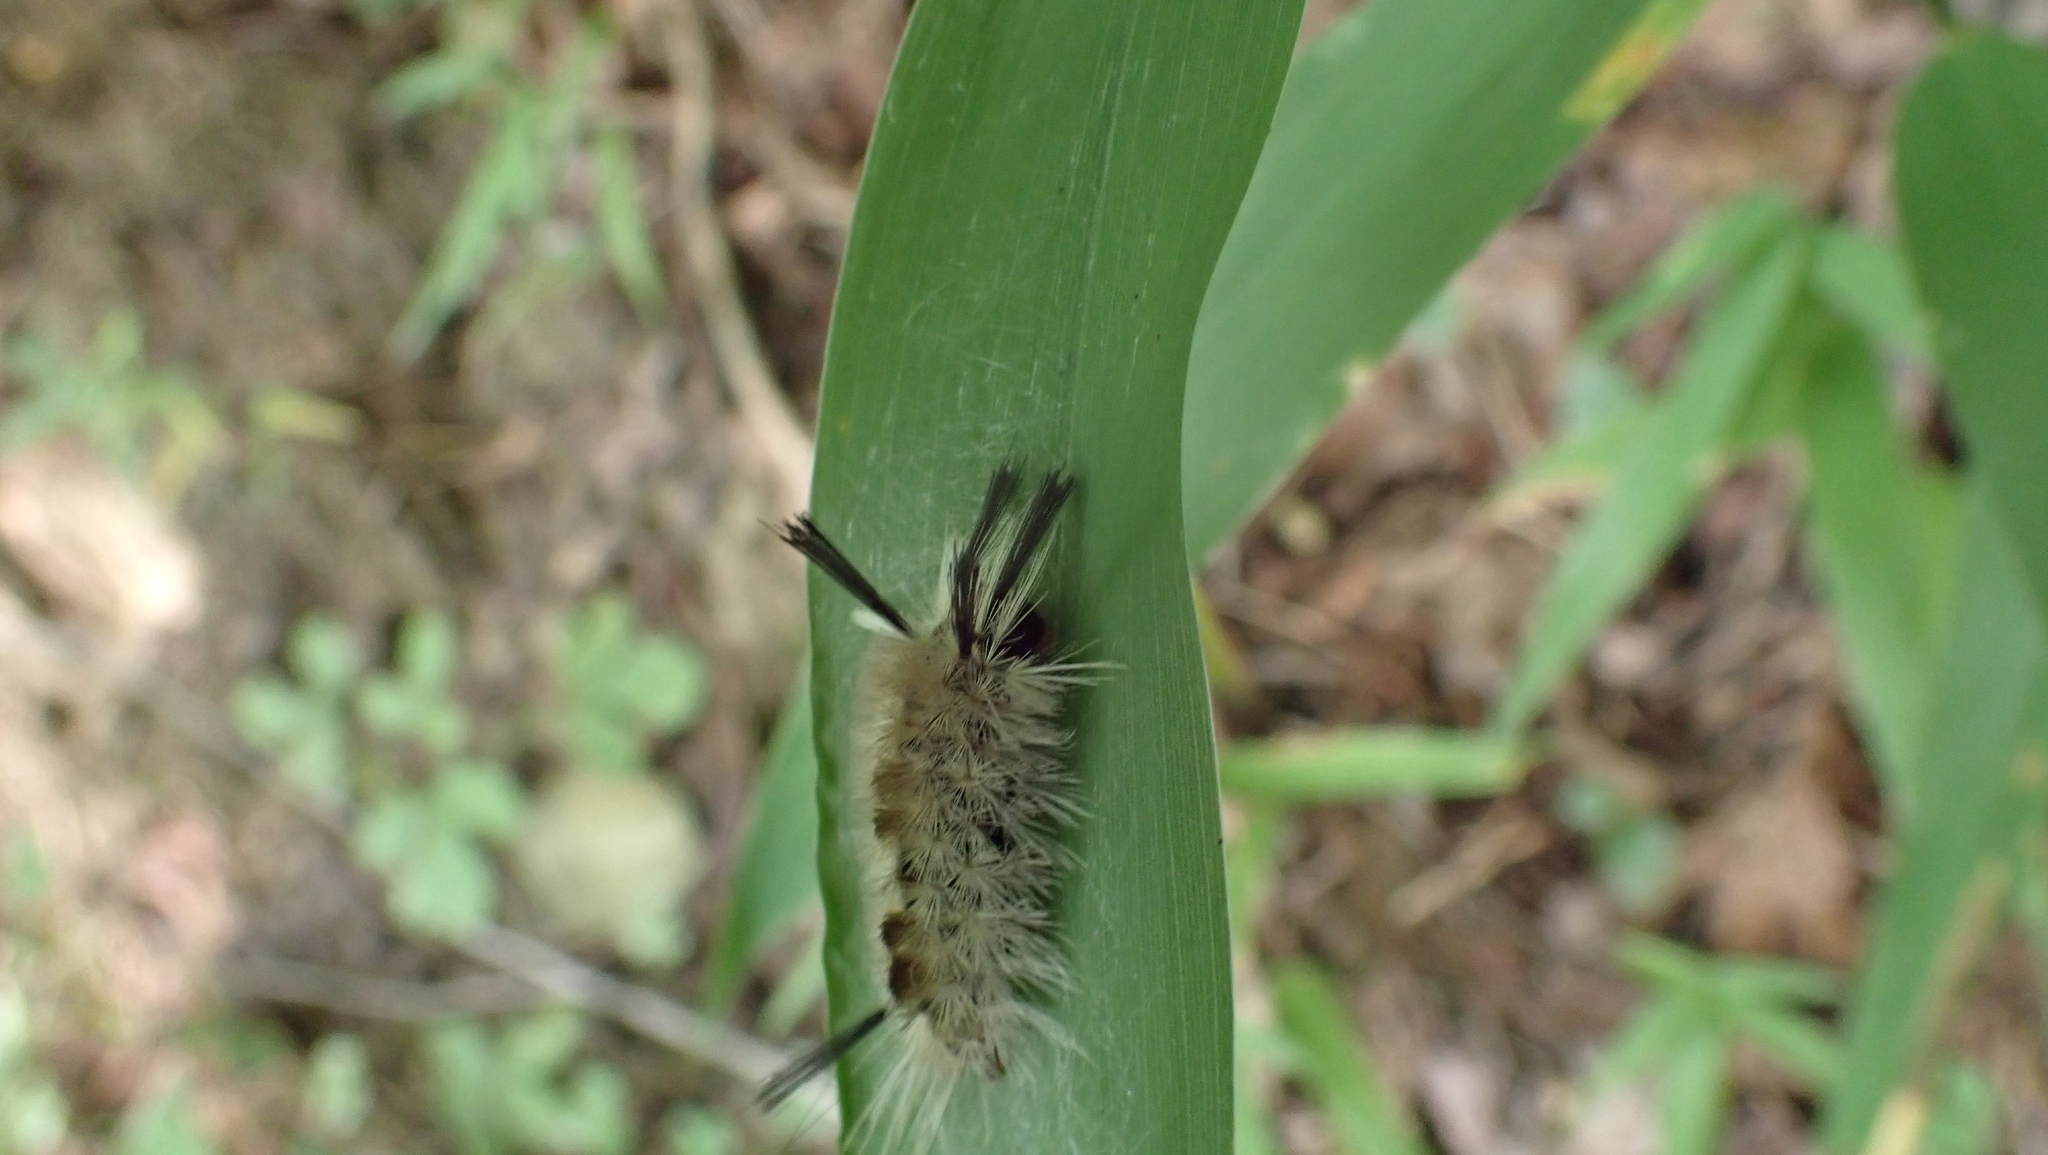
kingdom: Animalia
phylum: Arthropoda
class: Insecta
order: Lepidoptera
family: Erebidae
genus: Halysidota
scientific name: Halysidota tessellaris
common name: Banded tussock moth
